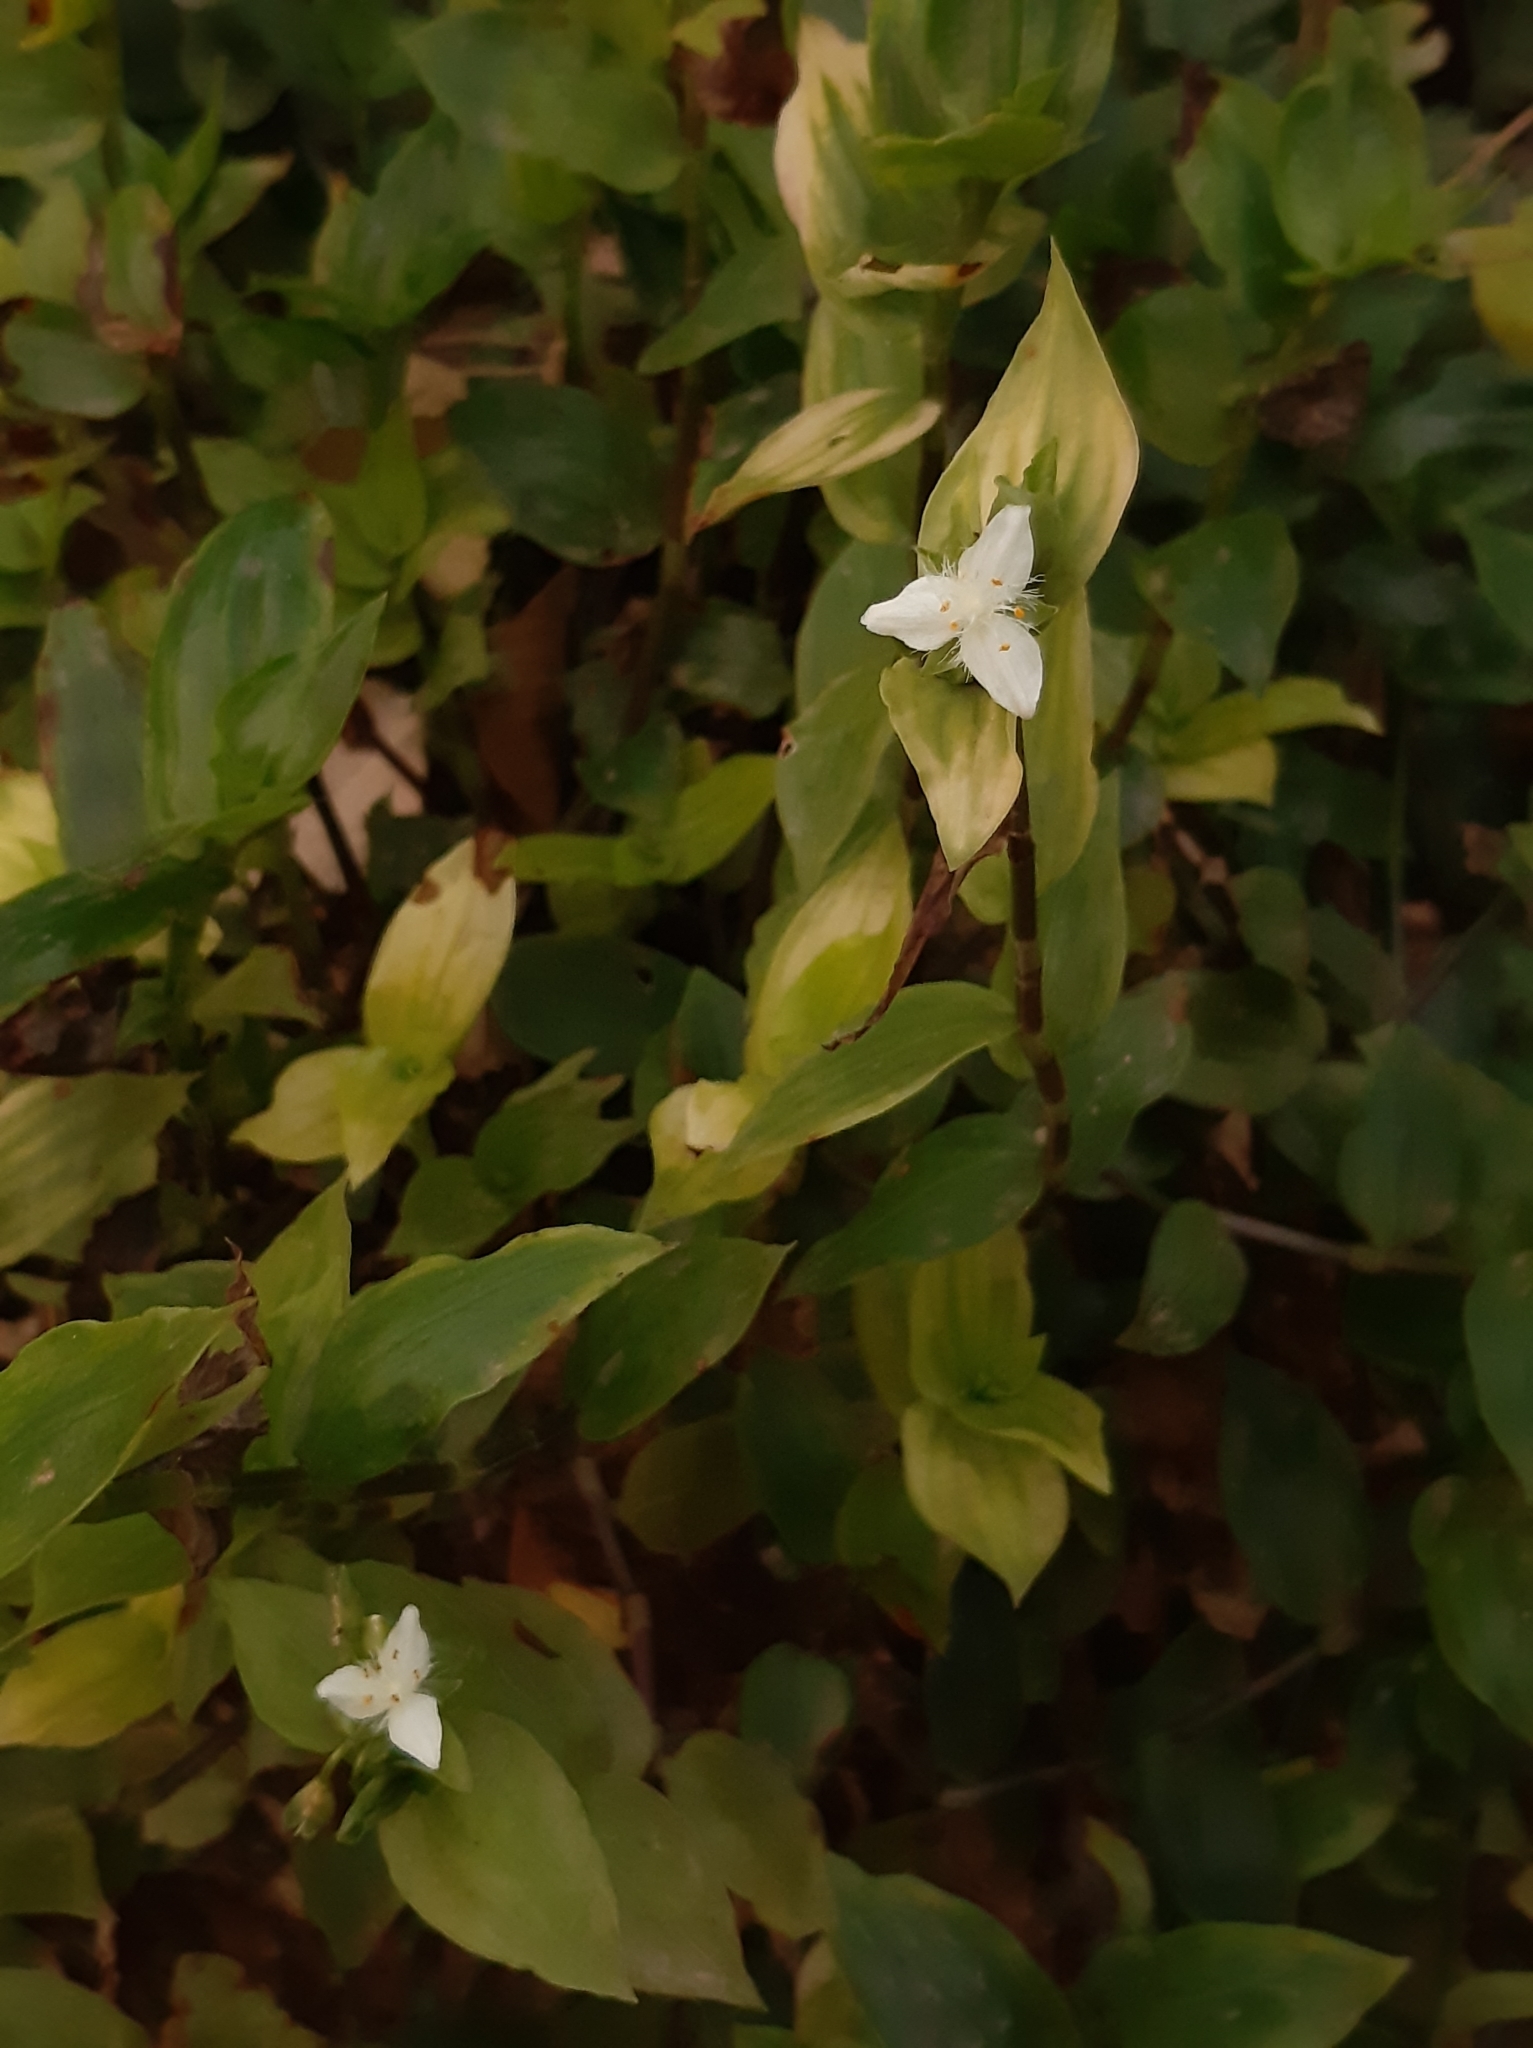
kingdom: Plantae
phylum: Tracheophyta
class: Liliopsida
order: Commelinales
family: Commelinaceae
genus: Tradescantia
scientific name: Tradescantia fluminensis
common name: Wandering-jew
